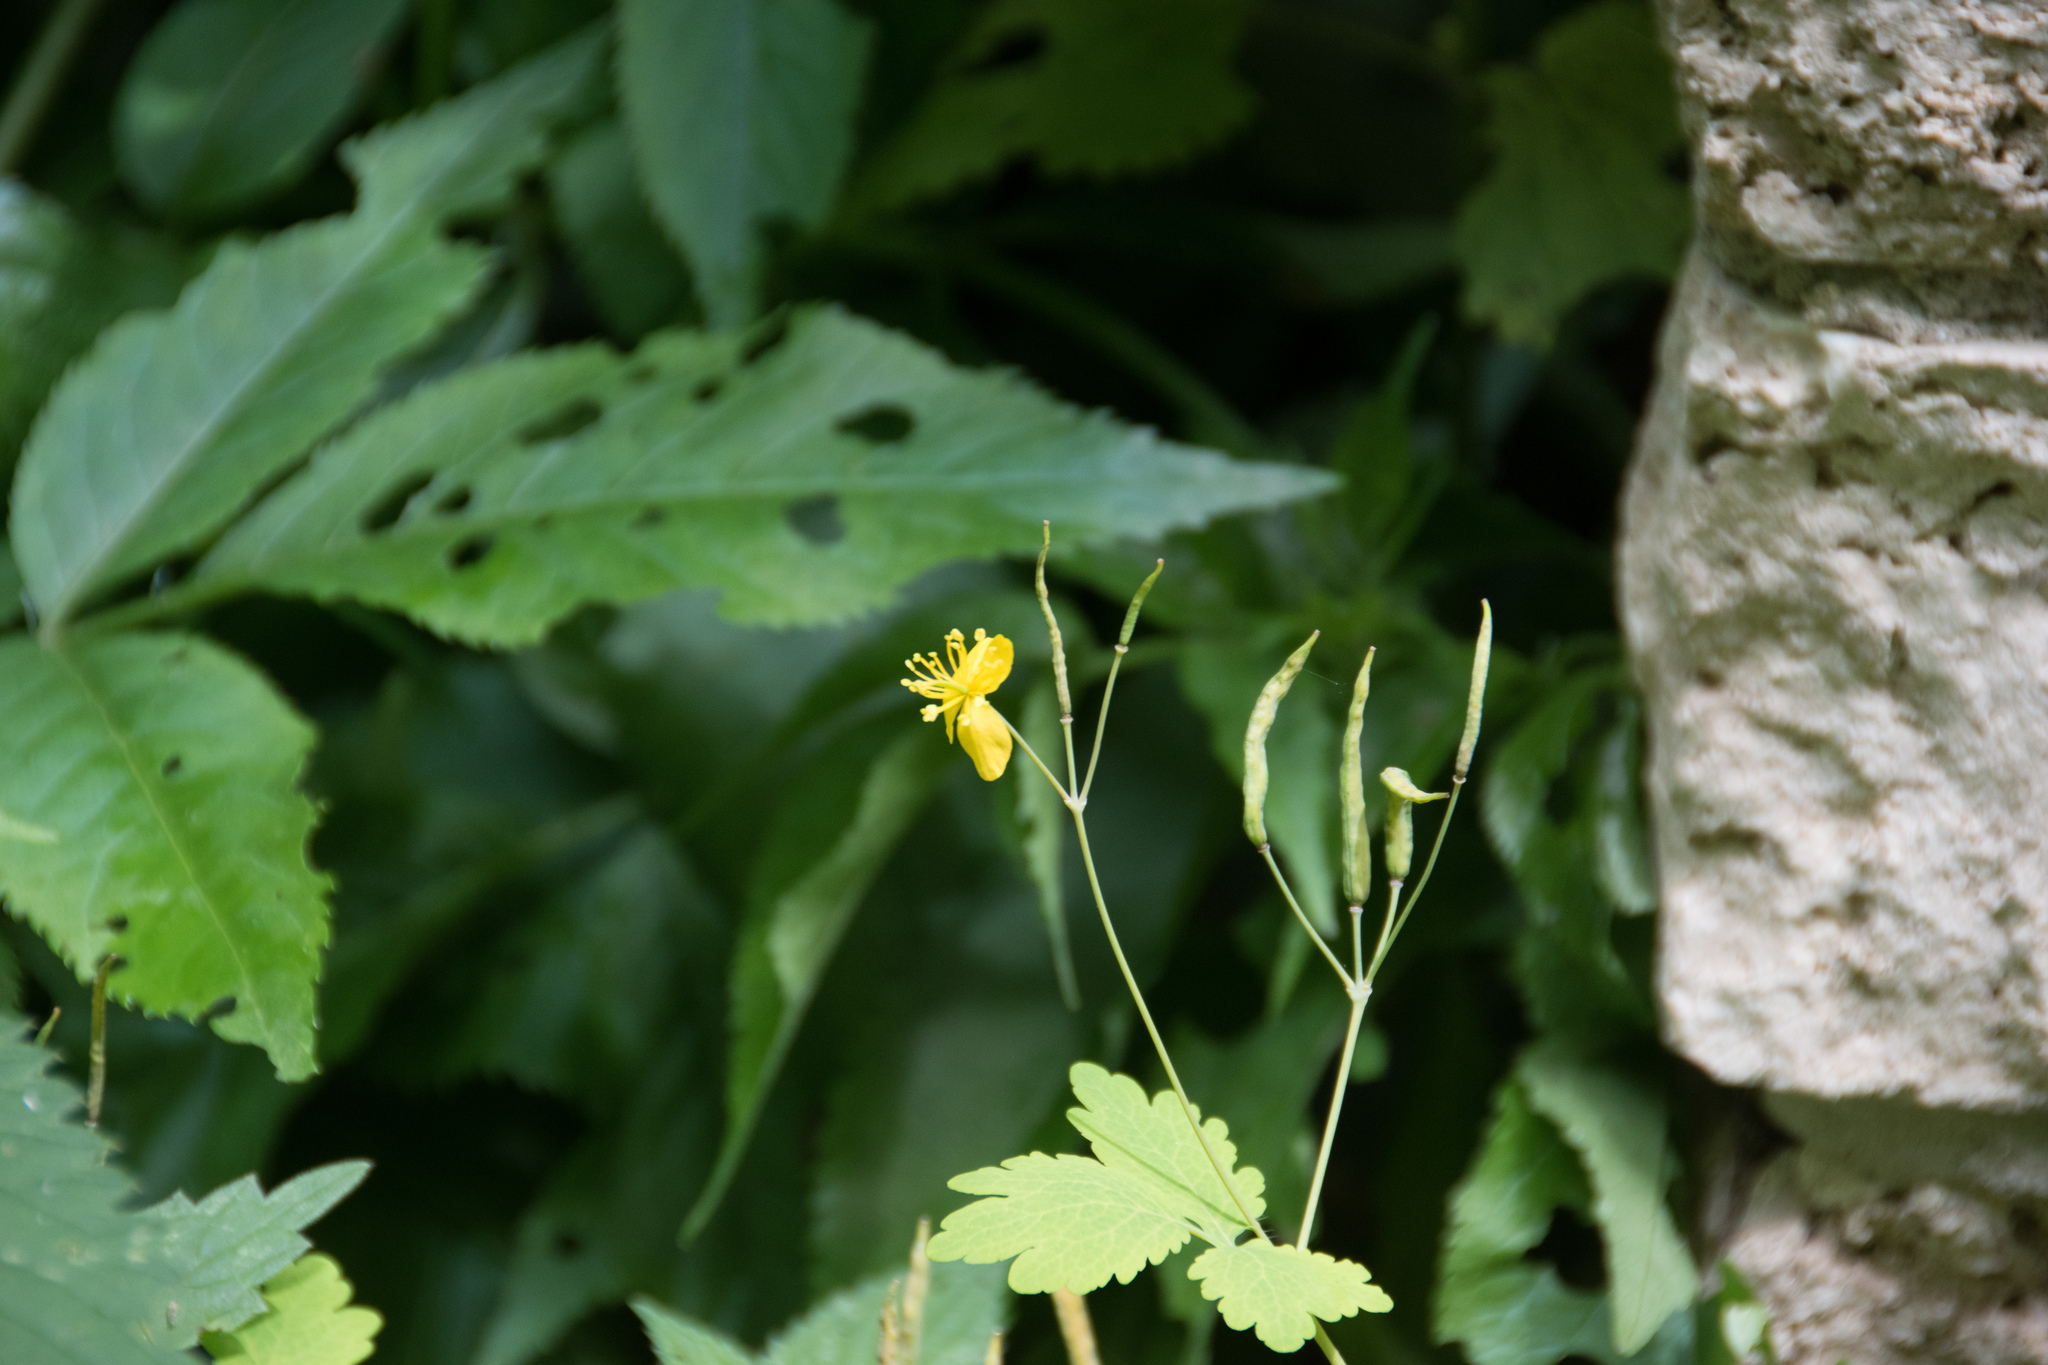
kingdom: Plantae
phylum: Tracheophyta
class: Magnoliopsida
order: Ranunculales
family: Papaveraceae
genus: Chelidonium
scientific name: Chelidonium majus
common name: Greater celandine
